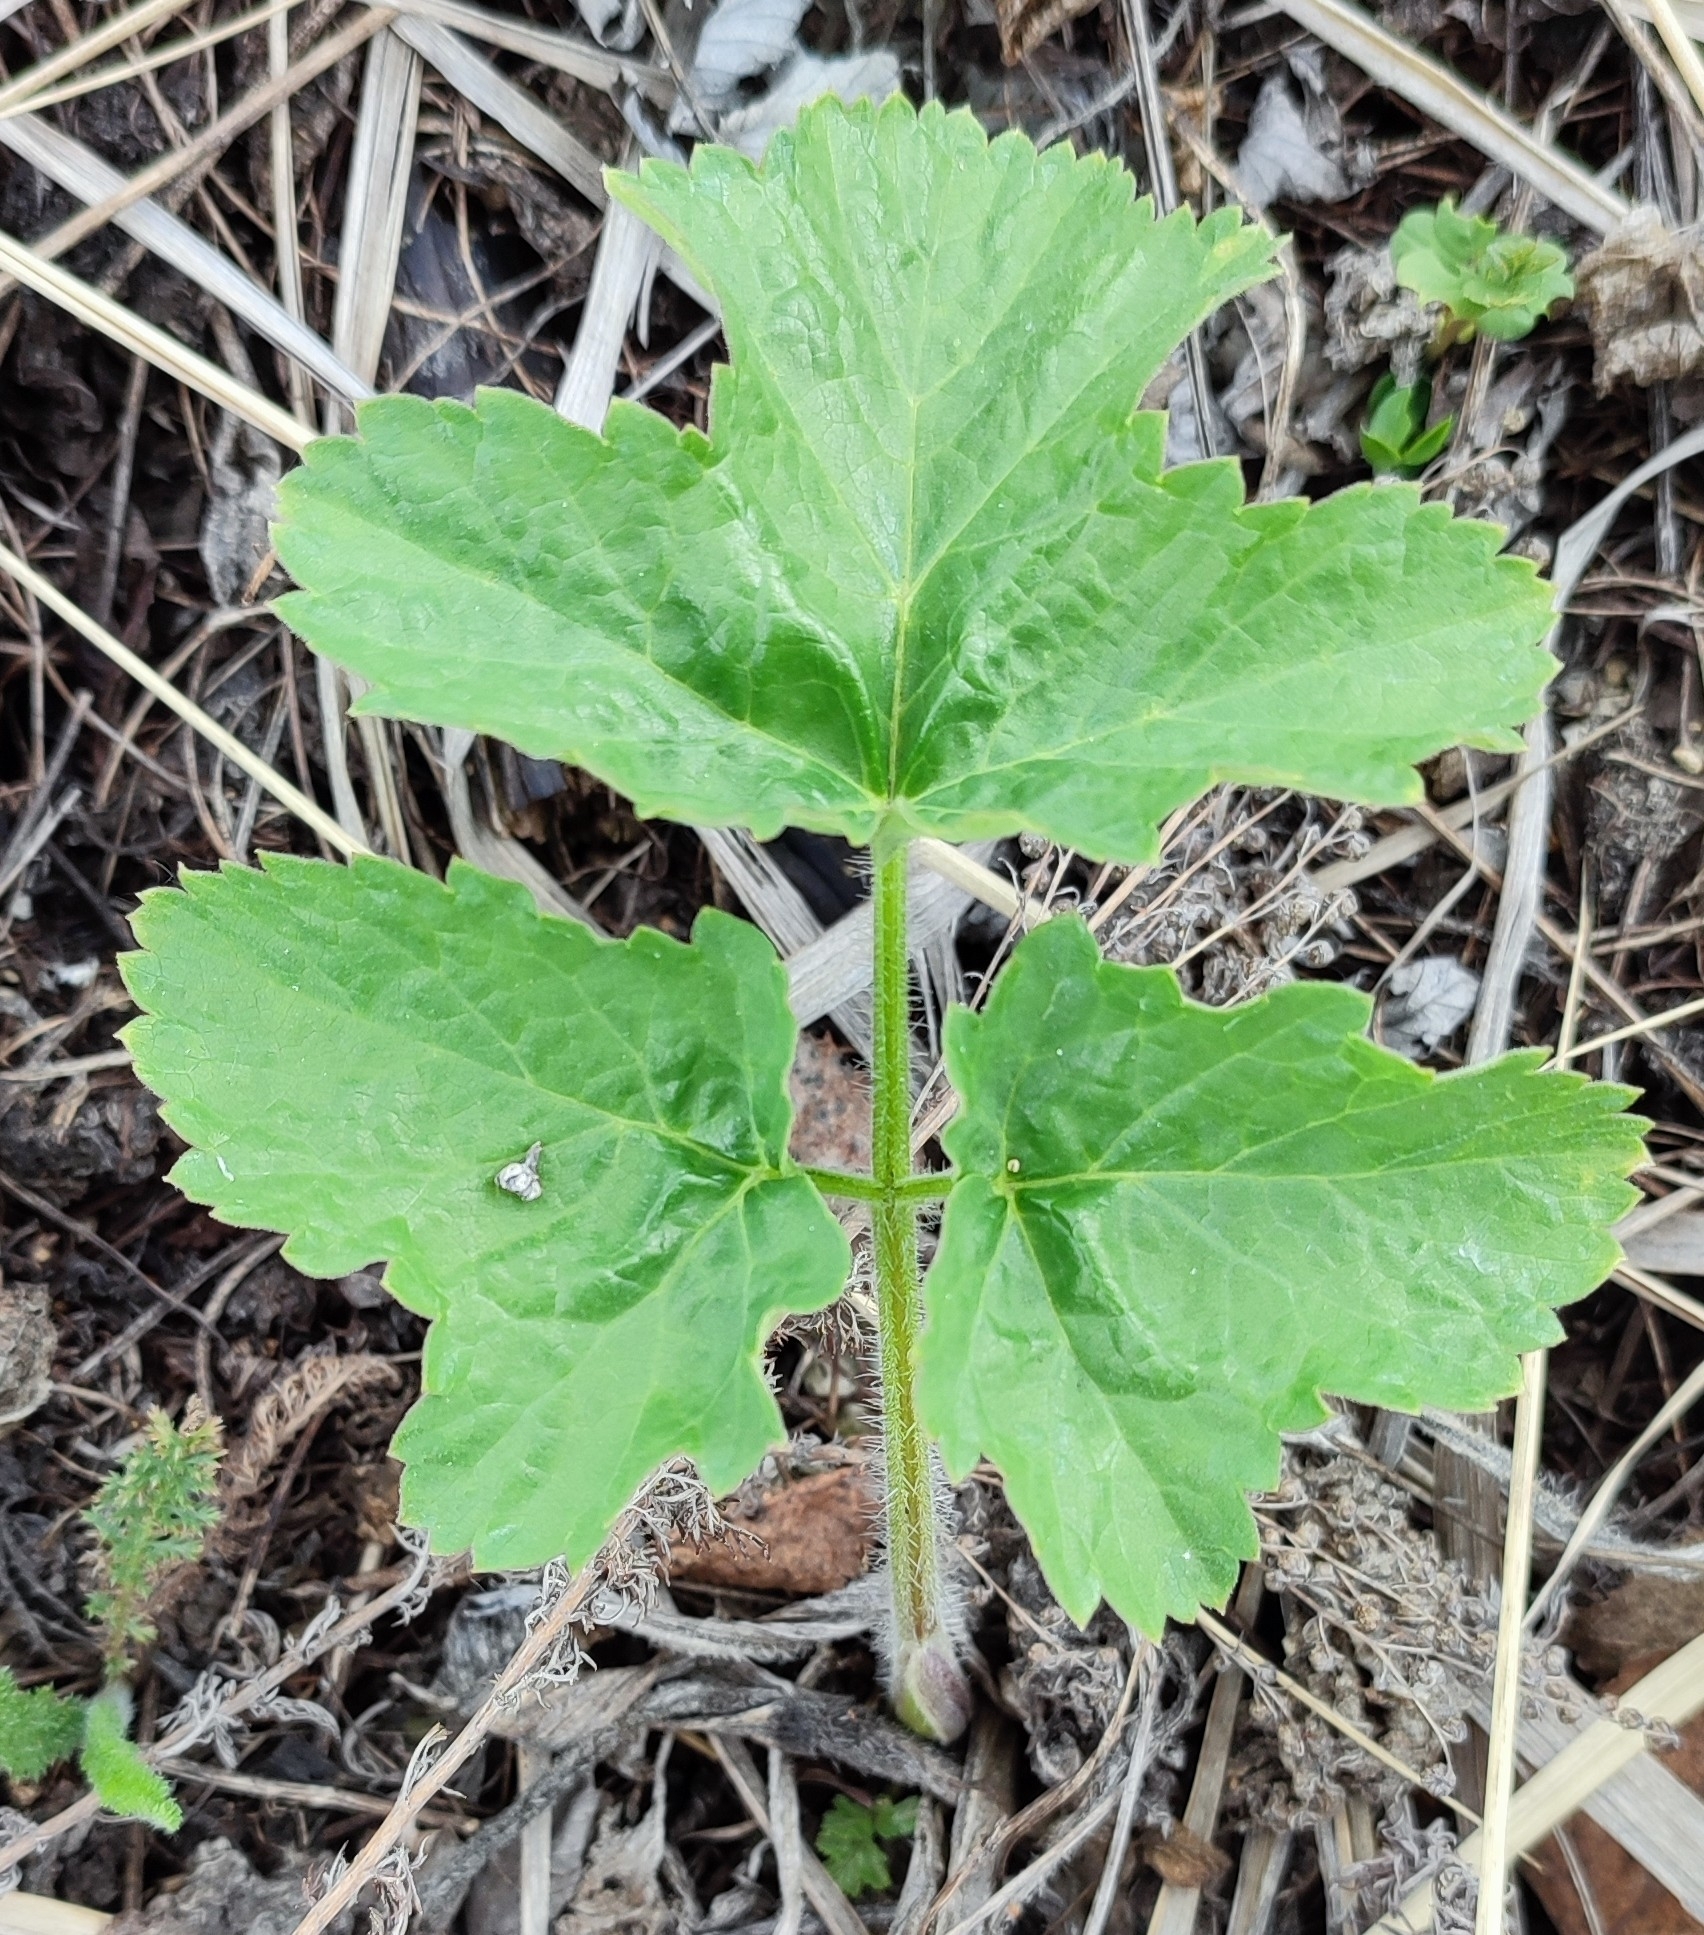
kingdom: Plantae
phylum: Tracheophyta
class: Magnoliopsida
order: Apiales
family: Apiaceae
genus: Heracleum
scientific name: Heracleum sphondylium
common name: Hogweed
